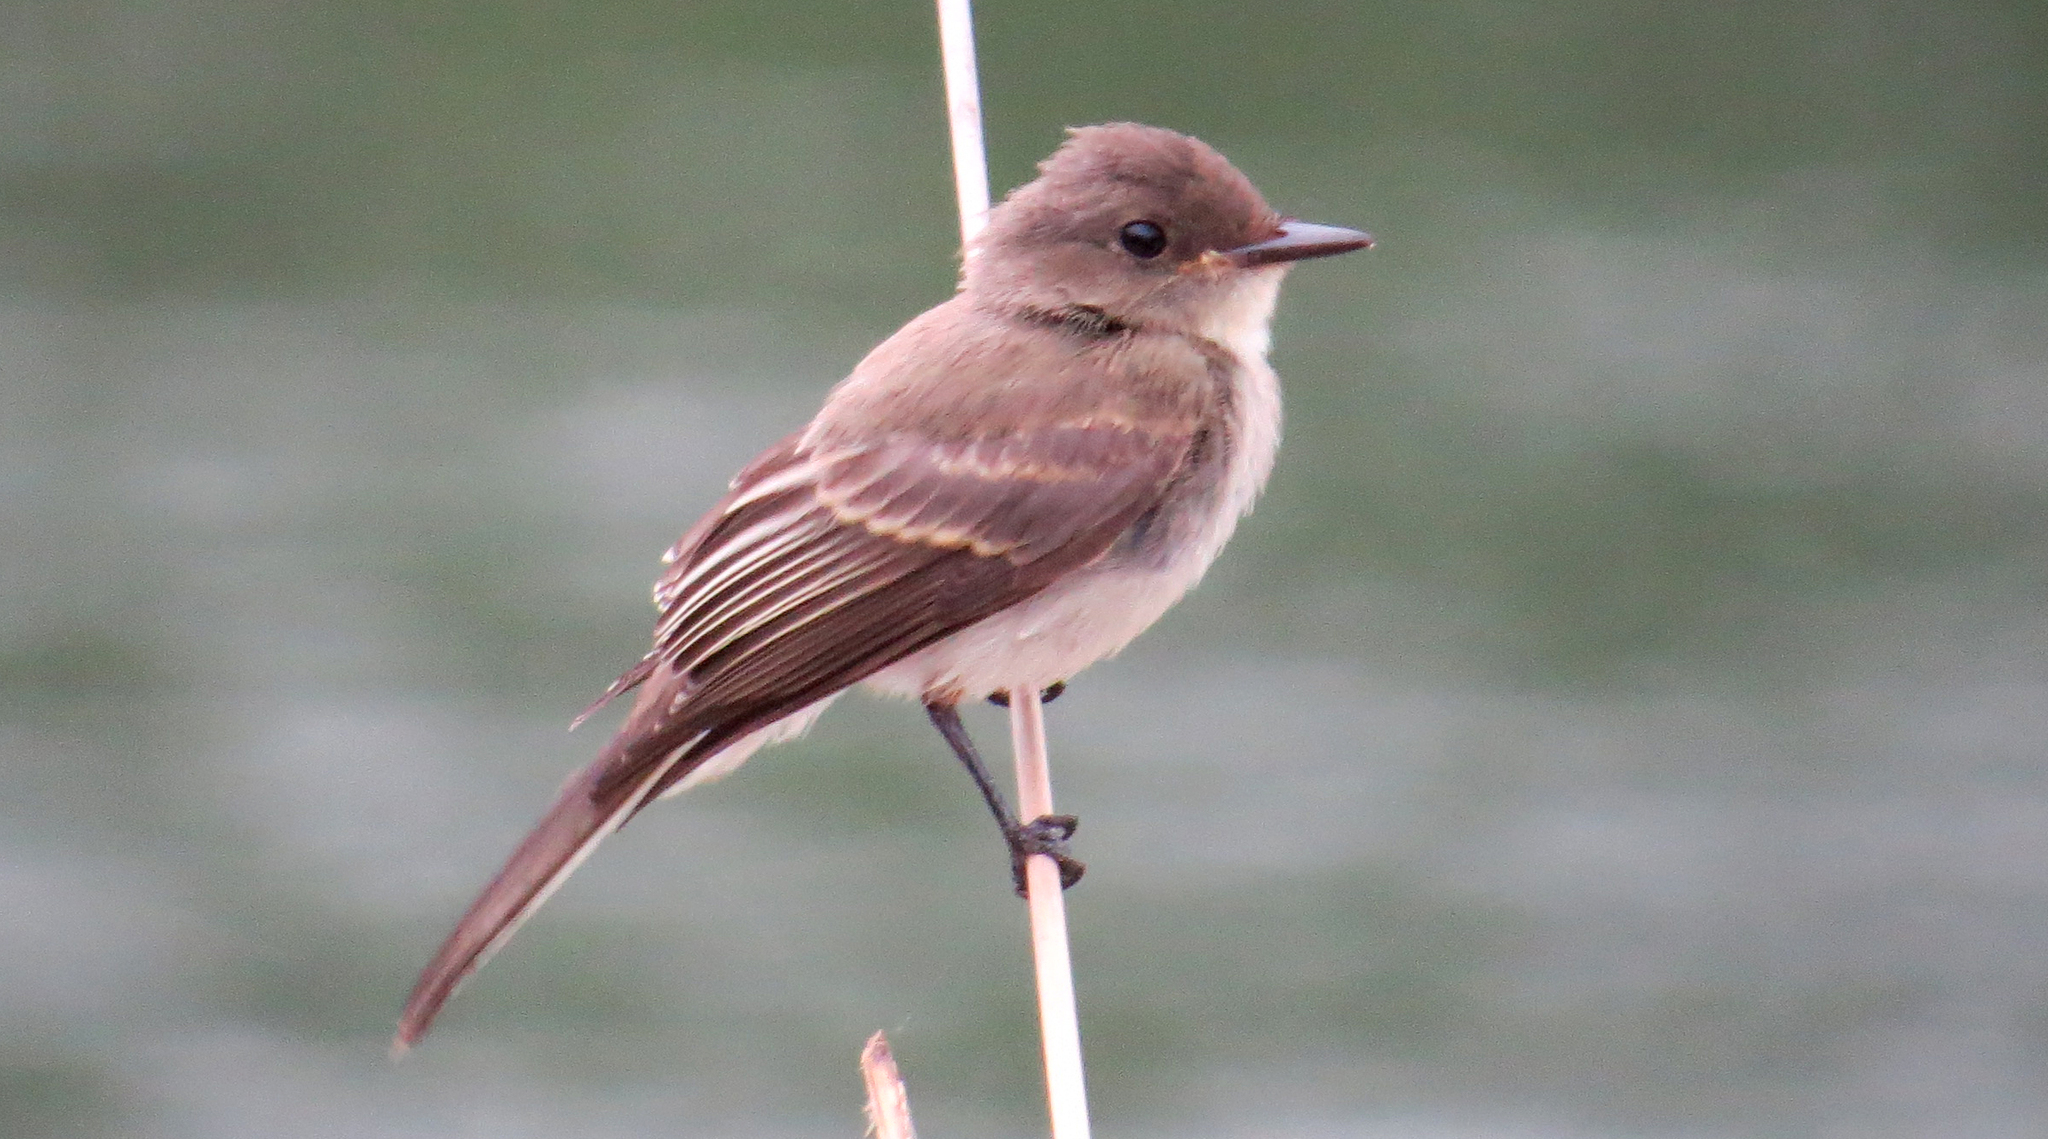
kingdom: Animalia
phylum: Chordata
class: Aves
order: Passeriformes
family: Tyrannidae
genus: Sayornis
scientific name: Sayornis phoebe
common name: Eastern phoebe
